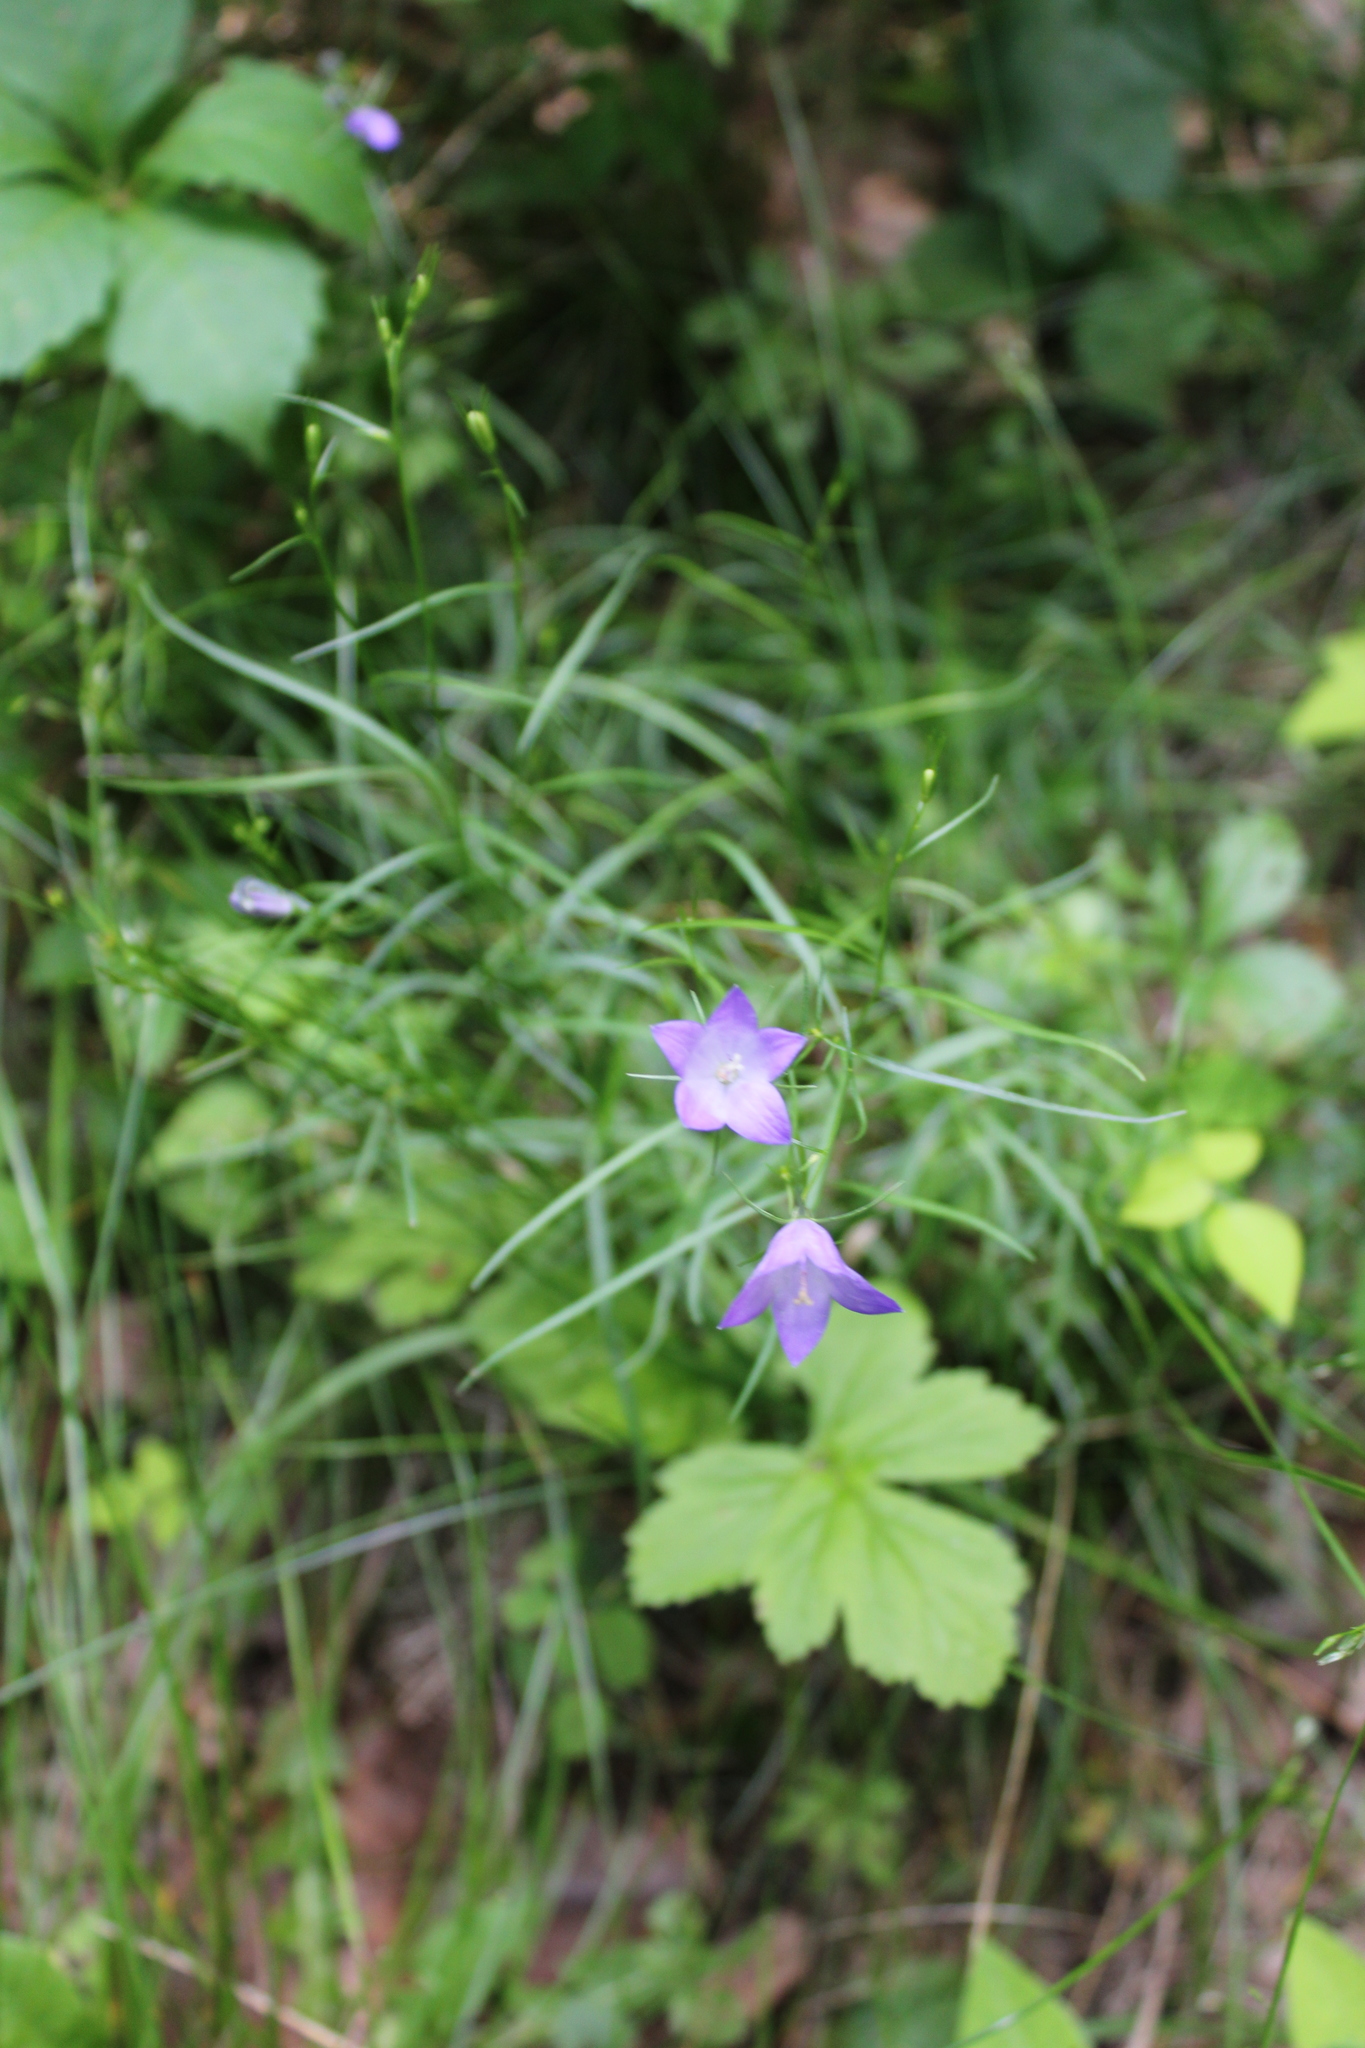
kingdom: Plantae
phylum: Tracheophyta
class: Magnoliopsida
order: Asterales
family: Campanulaceae
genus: Campanula
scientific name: Campanula intercedens
